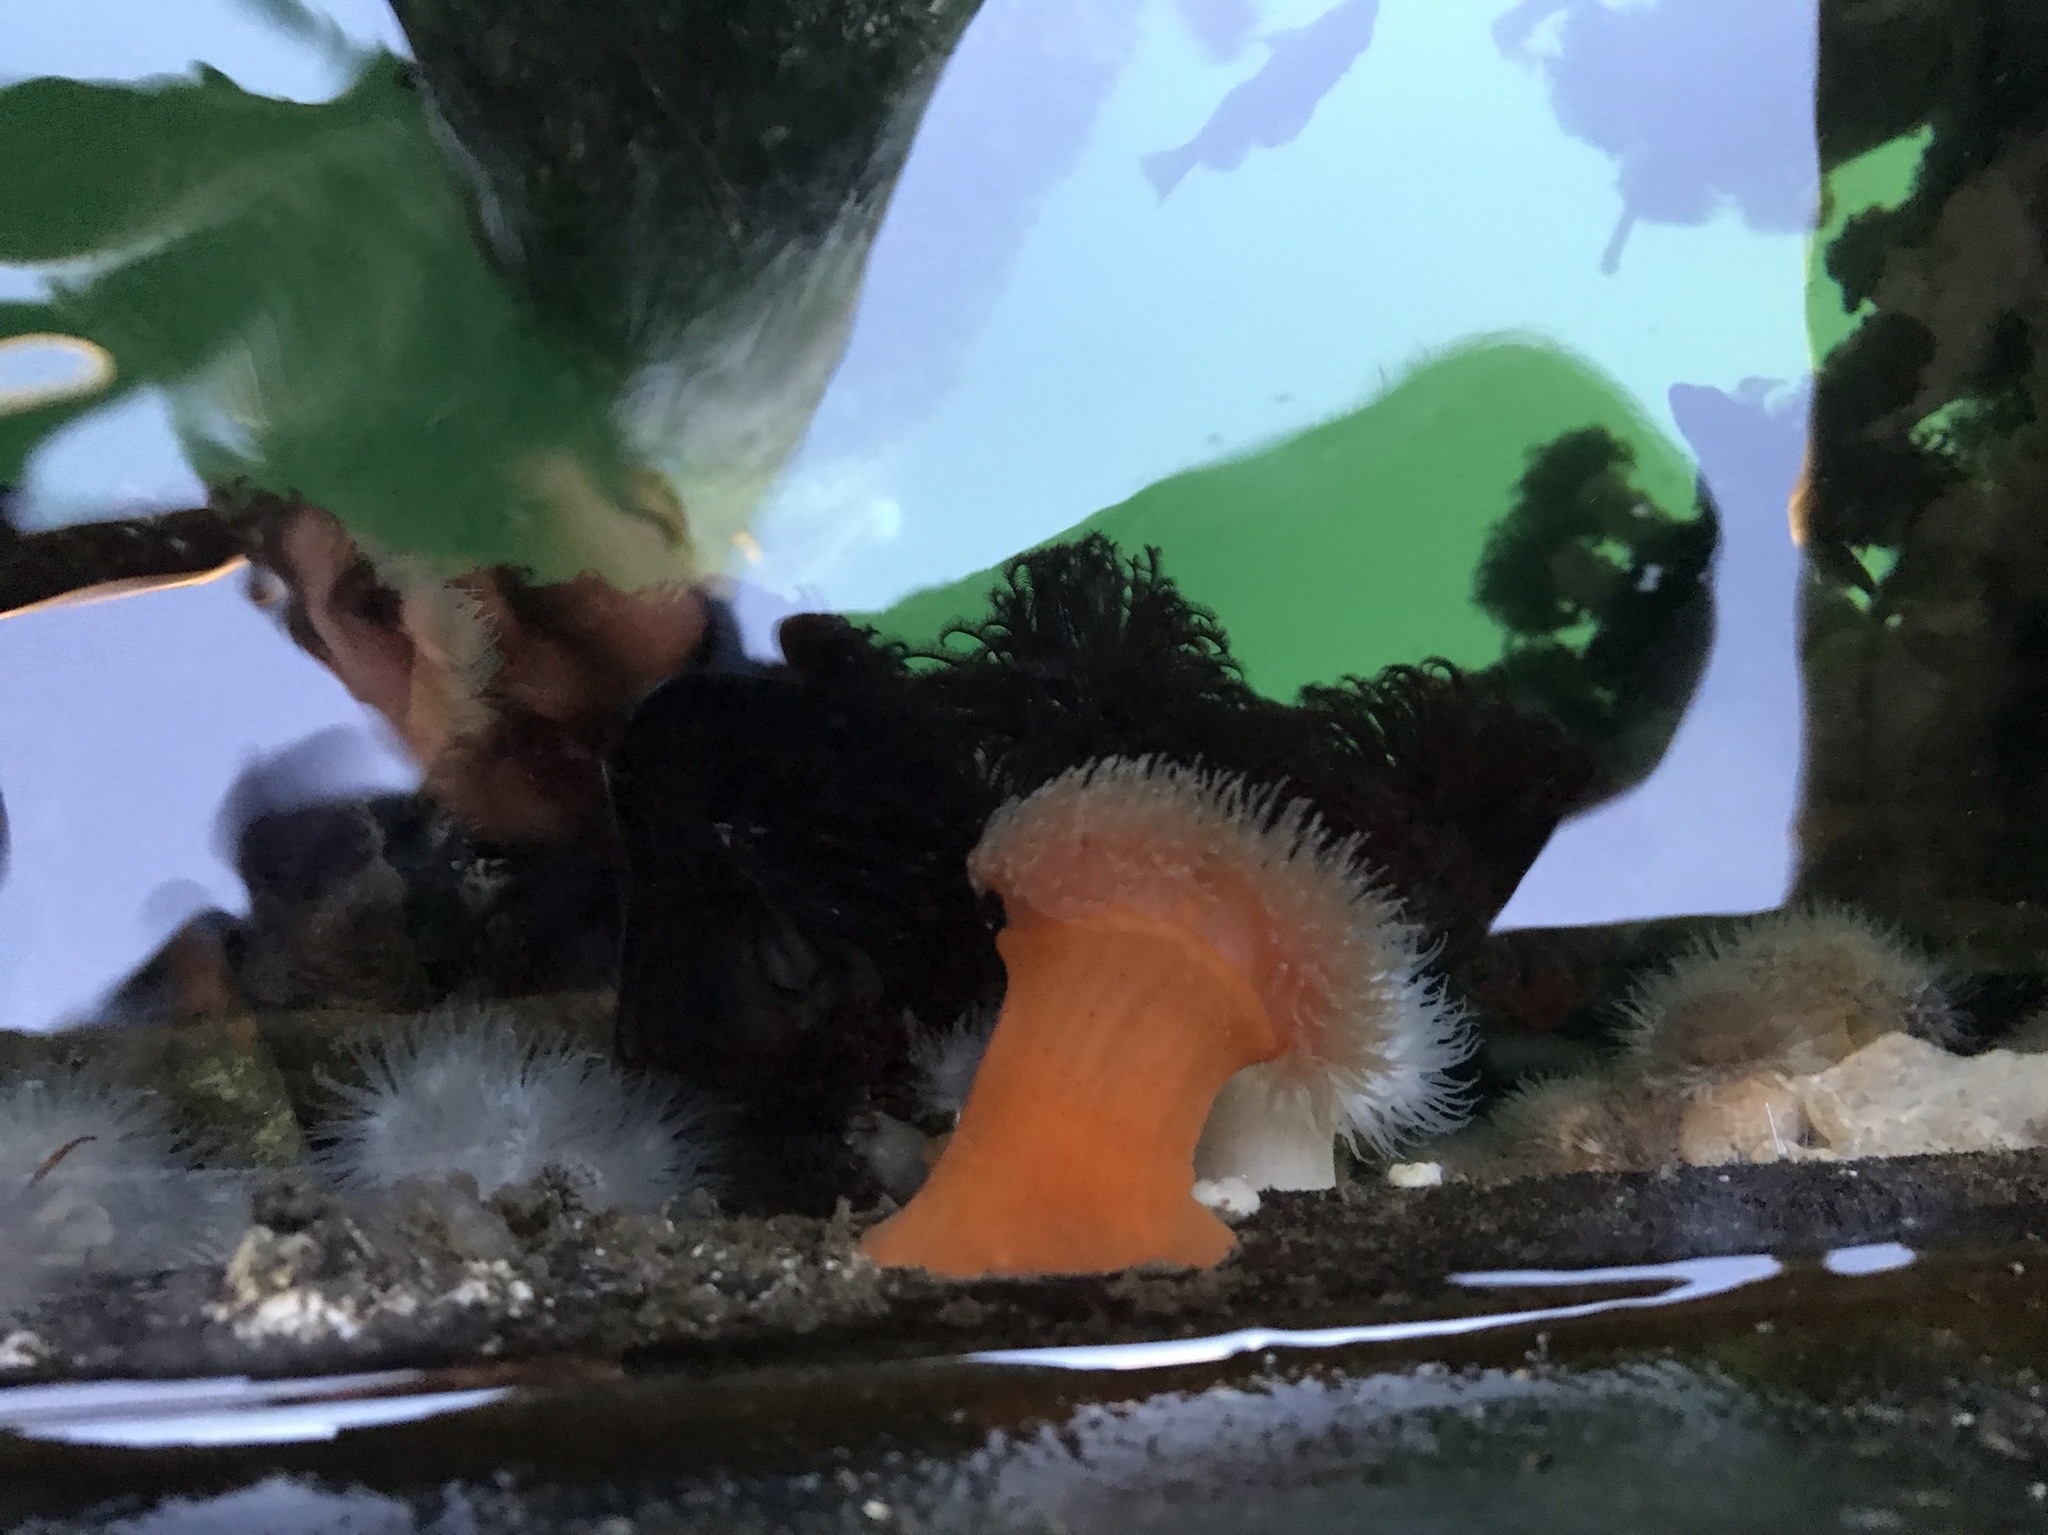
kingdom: Animalia
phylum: Cnidaria
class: Anthozoa
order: Actiniaria
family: Metridiidae
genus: Metridium
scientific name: Metridium senile
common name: Clonal plumose anemone
